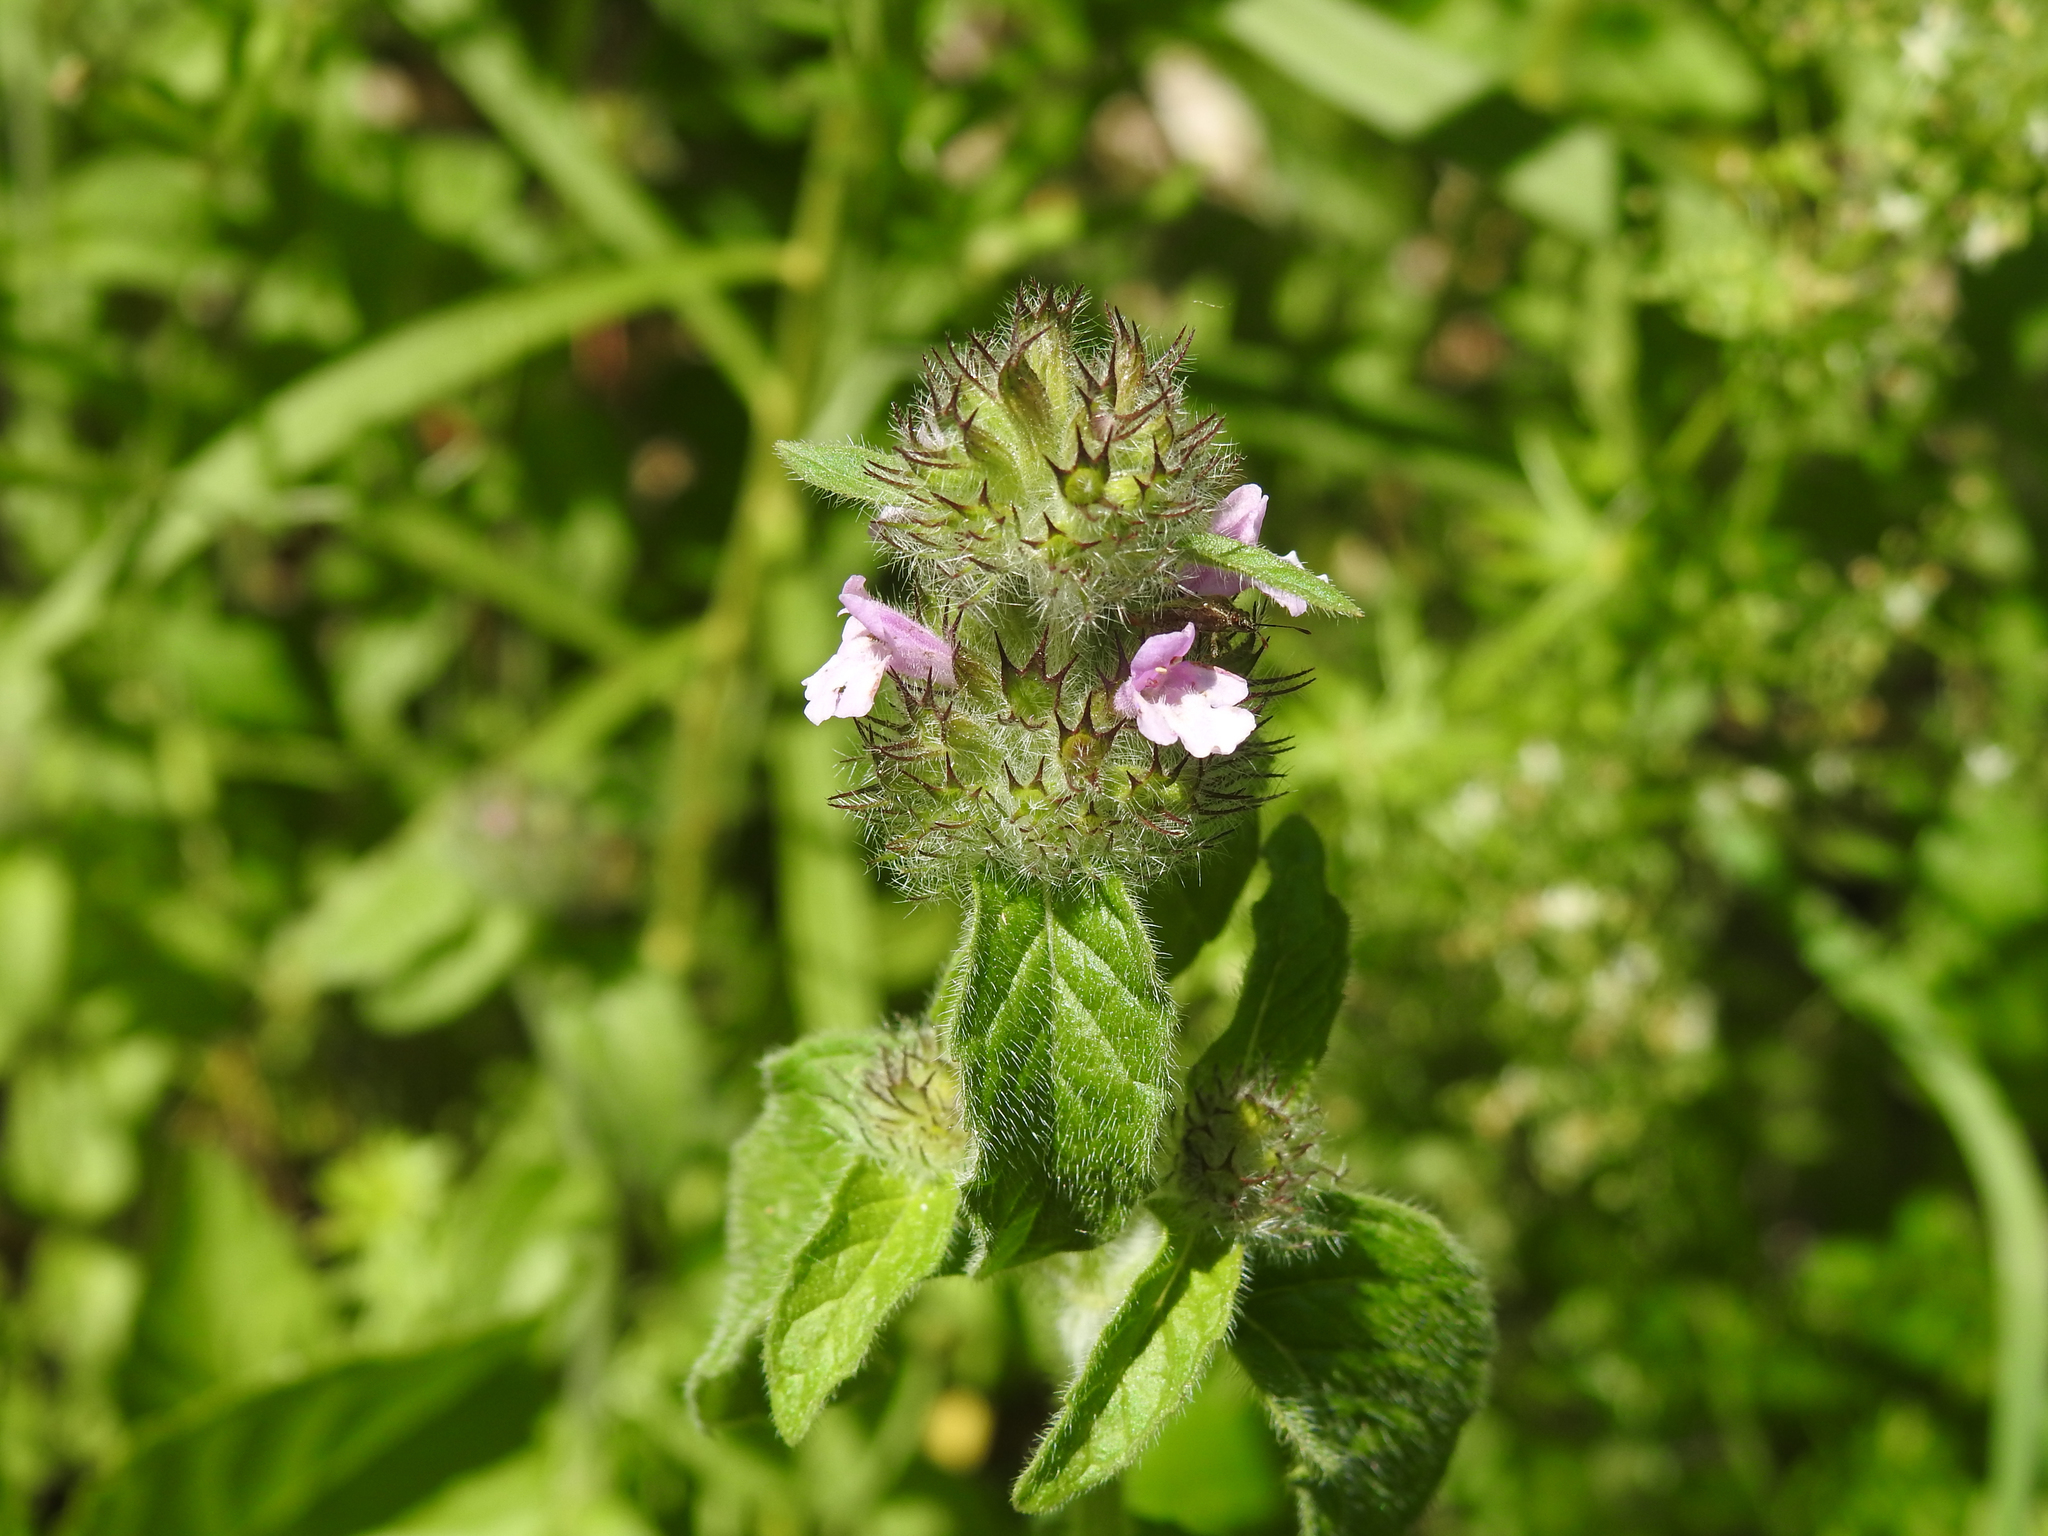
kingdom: Plantae
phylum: Tracheophyta
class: Magnoliopsida
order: Lamiales
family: Lamiaceae
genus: Clinopodium
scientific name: Clinopodium vulgare
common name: Wild basil
